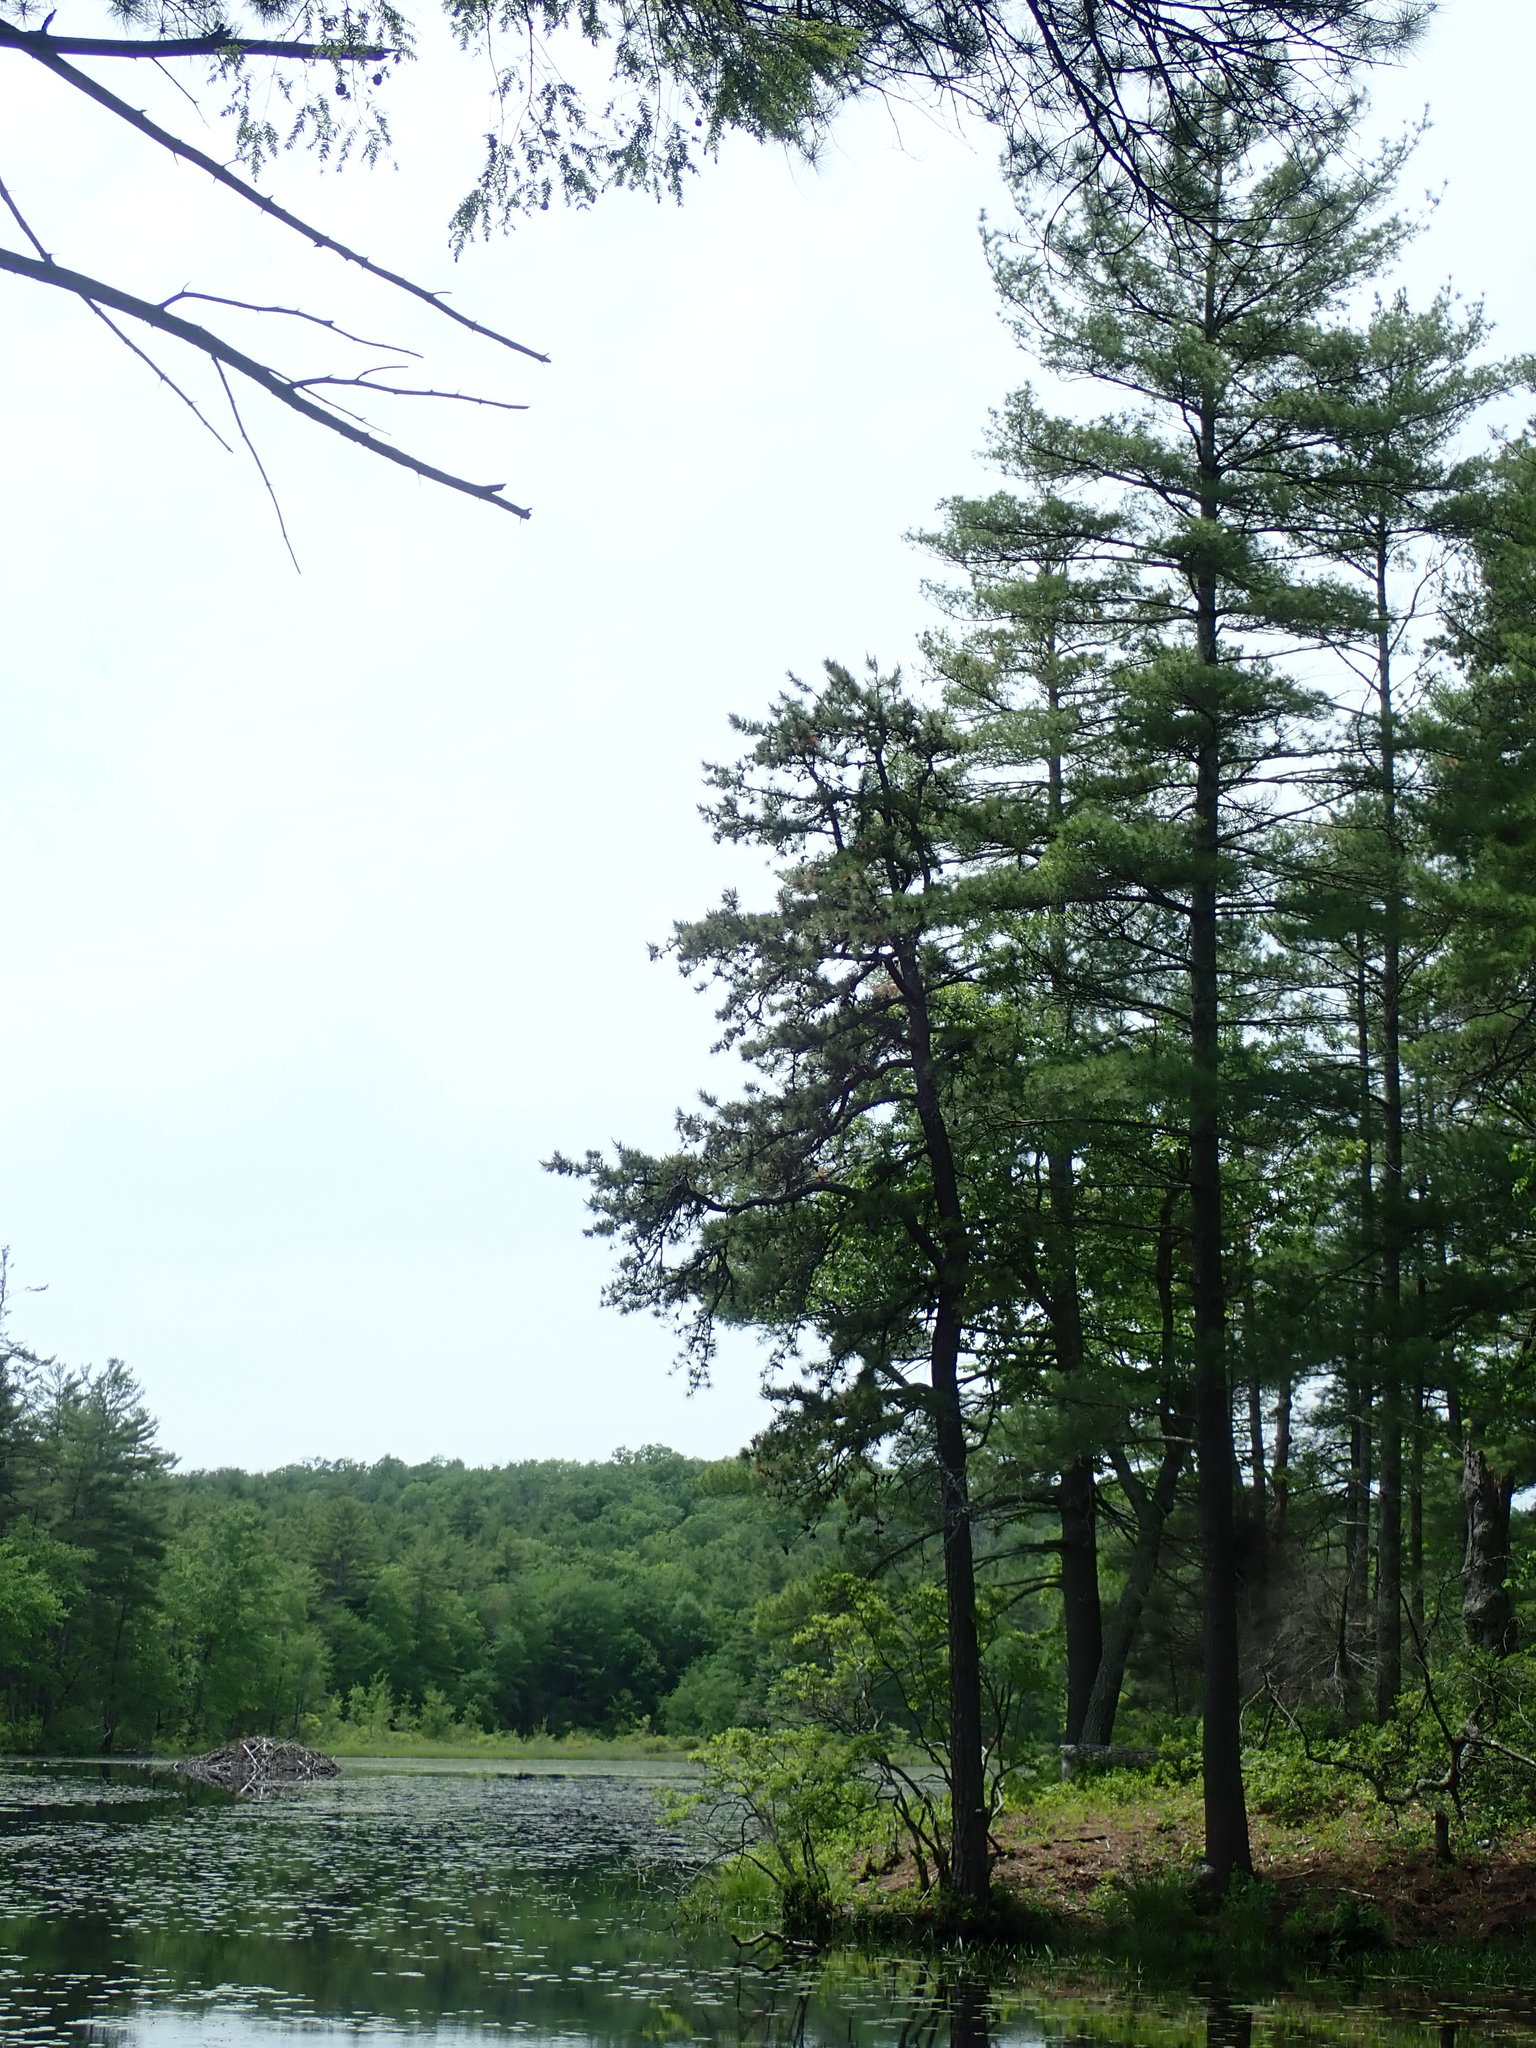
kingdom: Plantae
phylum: Tracheophyta
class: Pinopsida
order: Pinales
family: Pinaceae
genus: Pinus
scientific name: Pinus rigida
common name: Pitch pine
